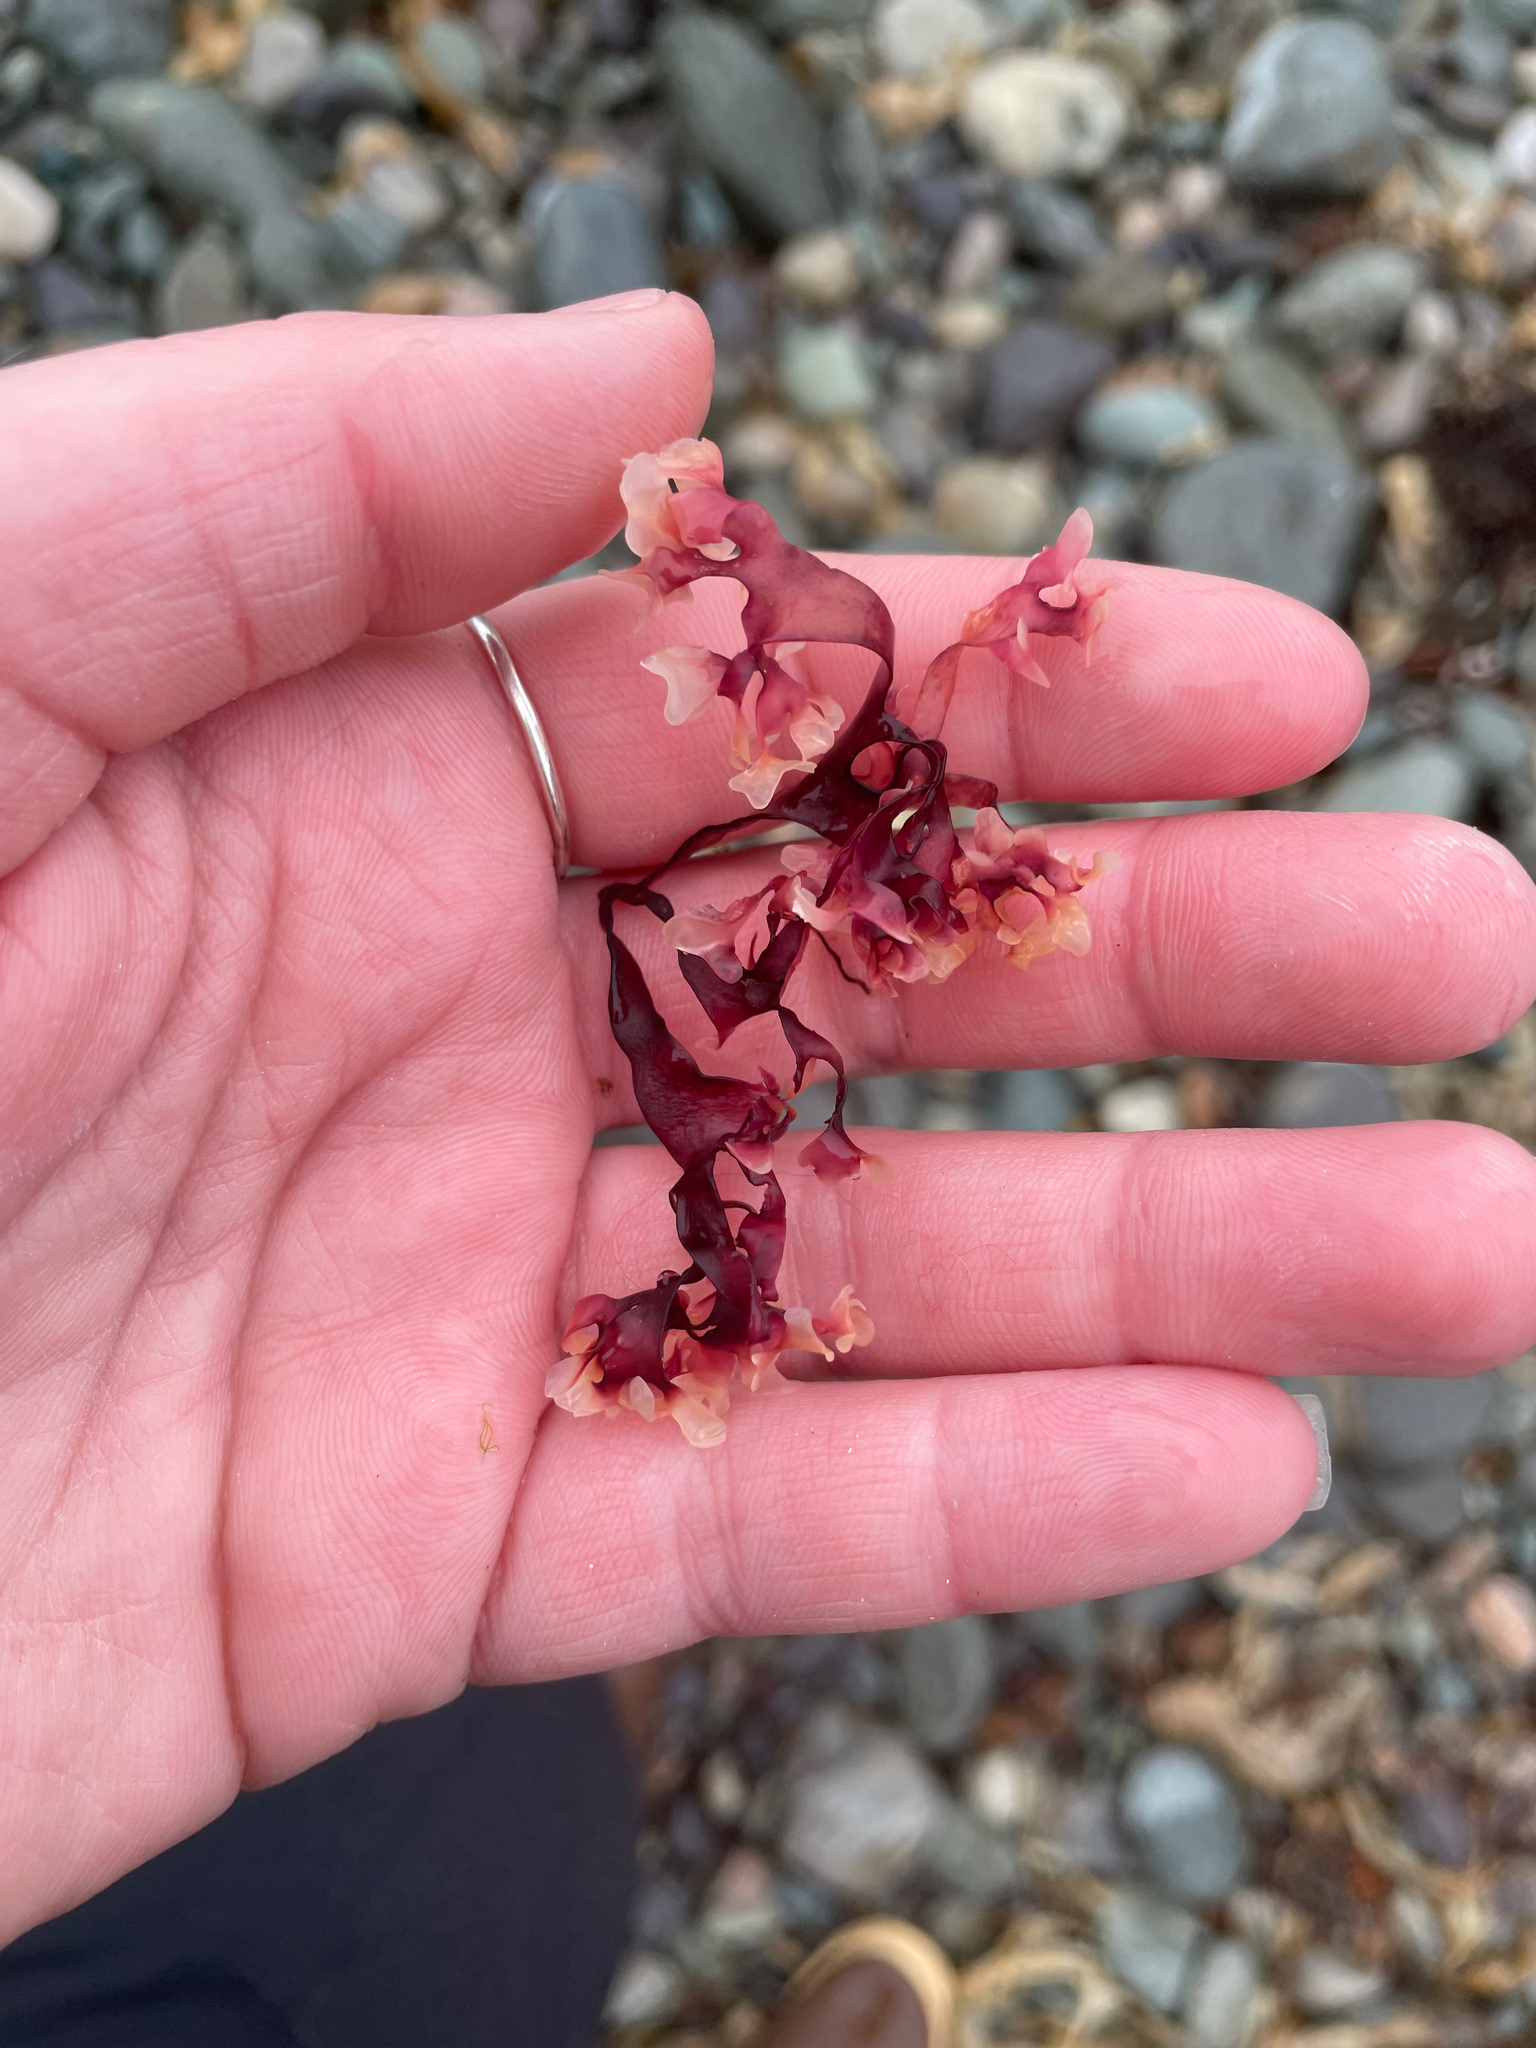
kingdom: Plantae
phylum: Rhodophyta
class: Florideophyceae
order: Gigartinales
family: Gigartinaceae
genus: Chondrus
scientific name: Chondrus crispus
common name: Carrageen
